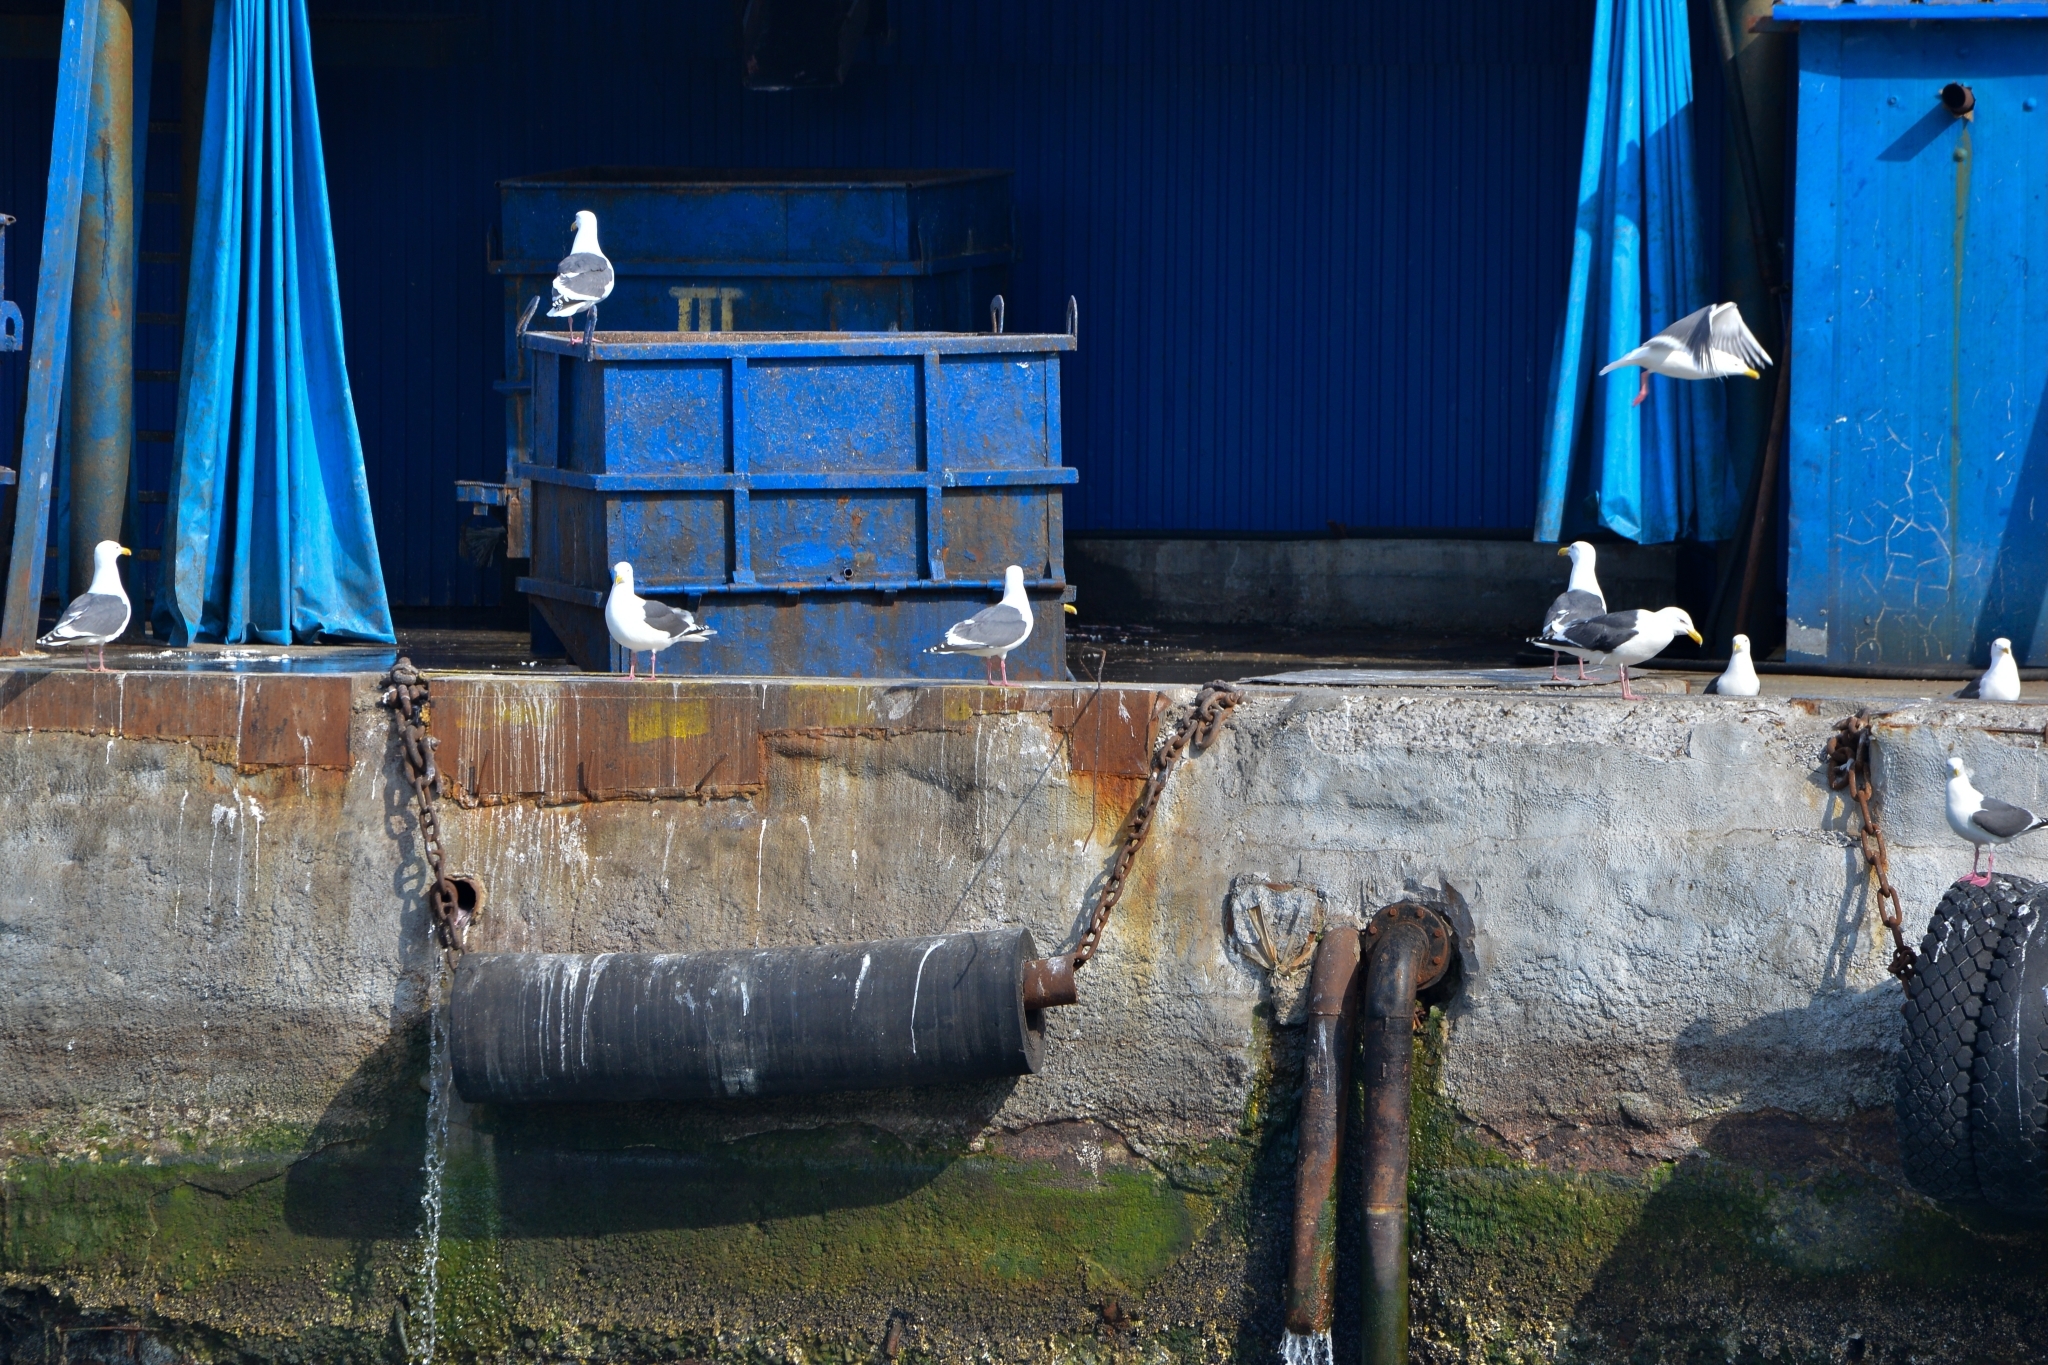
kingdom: Animalia
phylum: Chordata
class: Aves
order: Charadriiformes
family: Laridae
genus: Larus
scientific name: Larus schistisagus
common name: Slaty-backed gull
